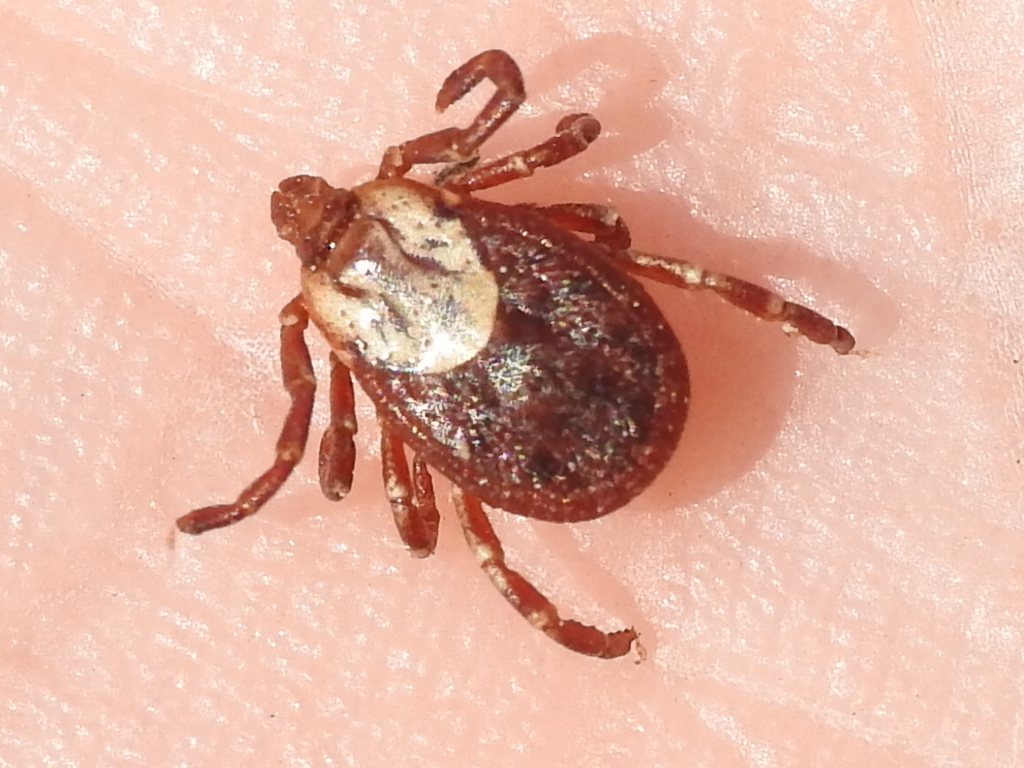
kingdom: Animalia
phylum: Arthropoda
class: Arachnida
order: Ixodida
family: Ixodidae
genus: Dermacentor
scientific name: Dermacentor variabilis
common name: American dog tick
